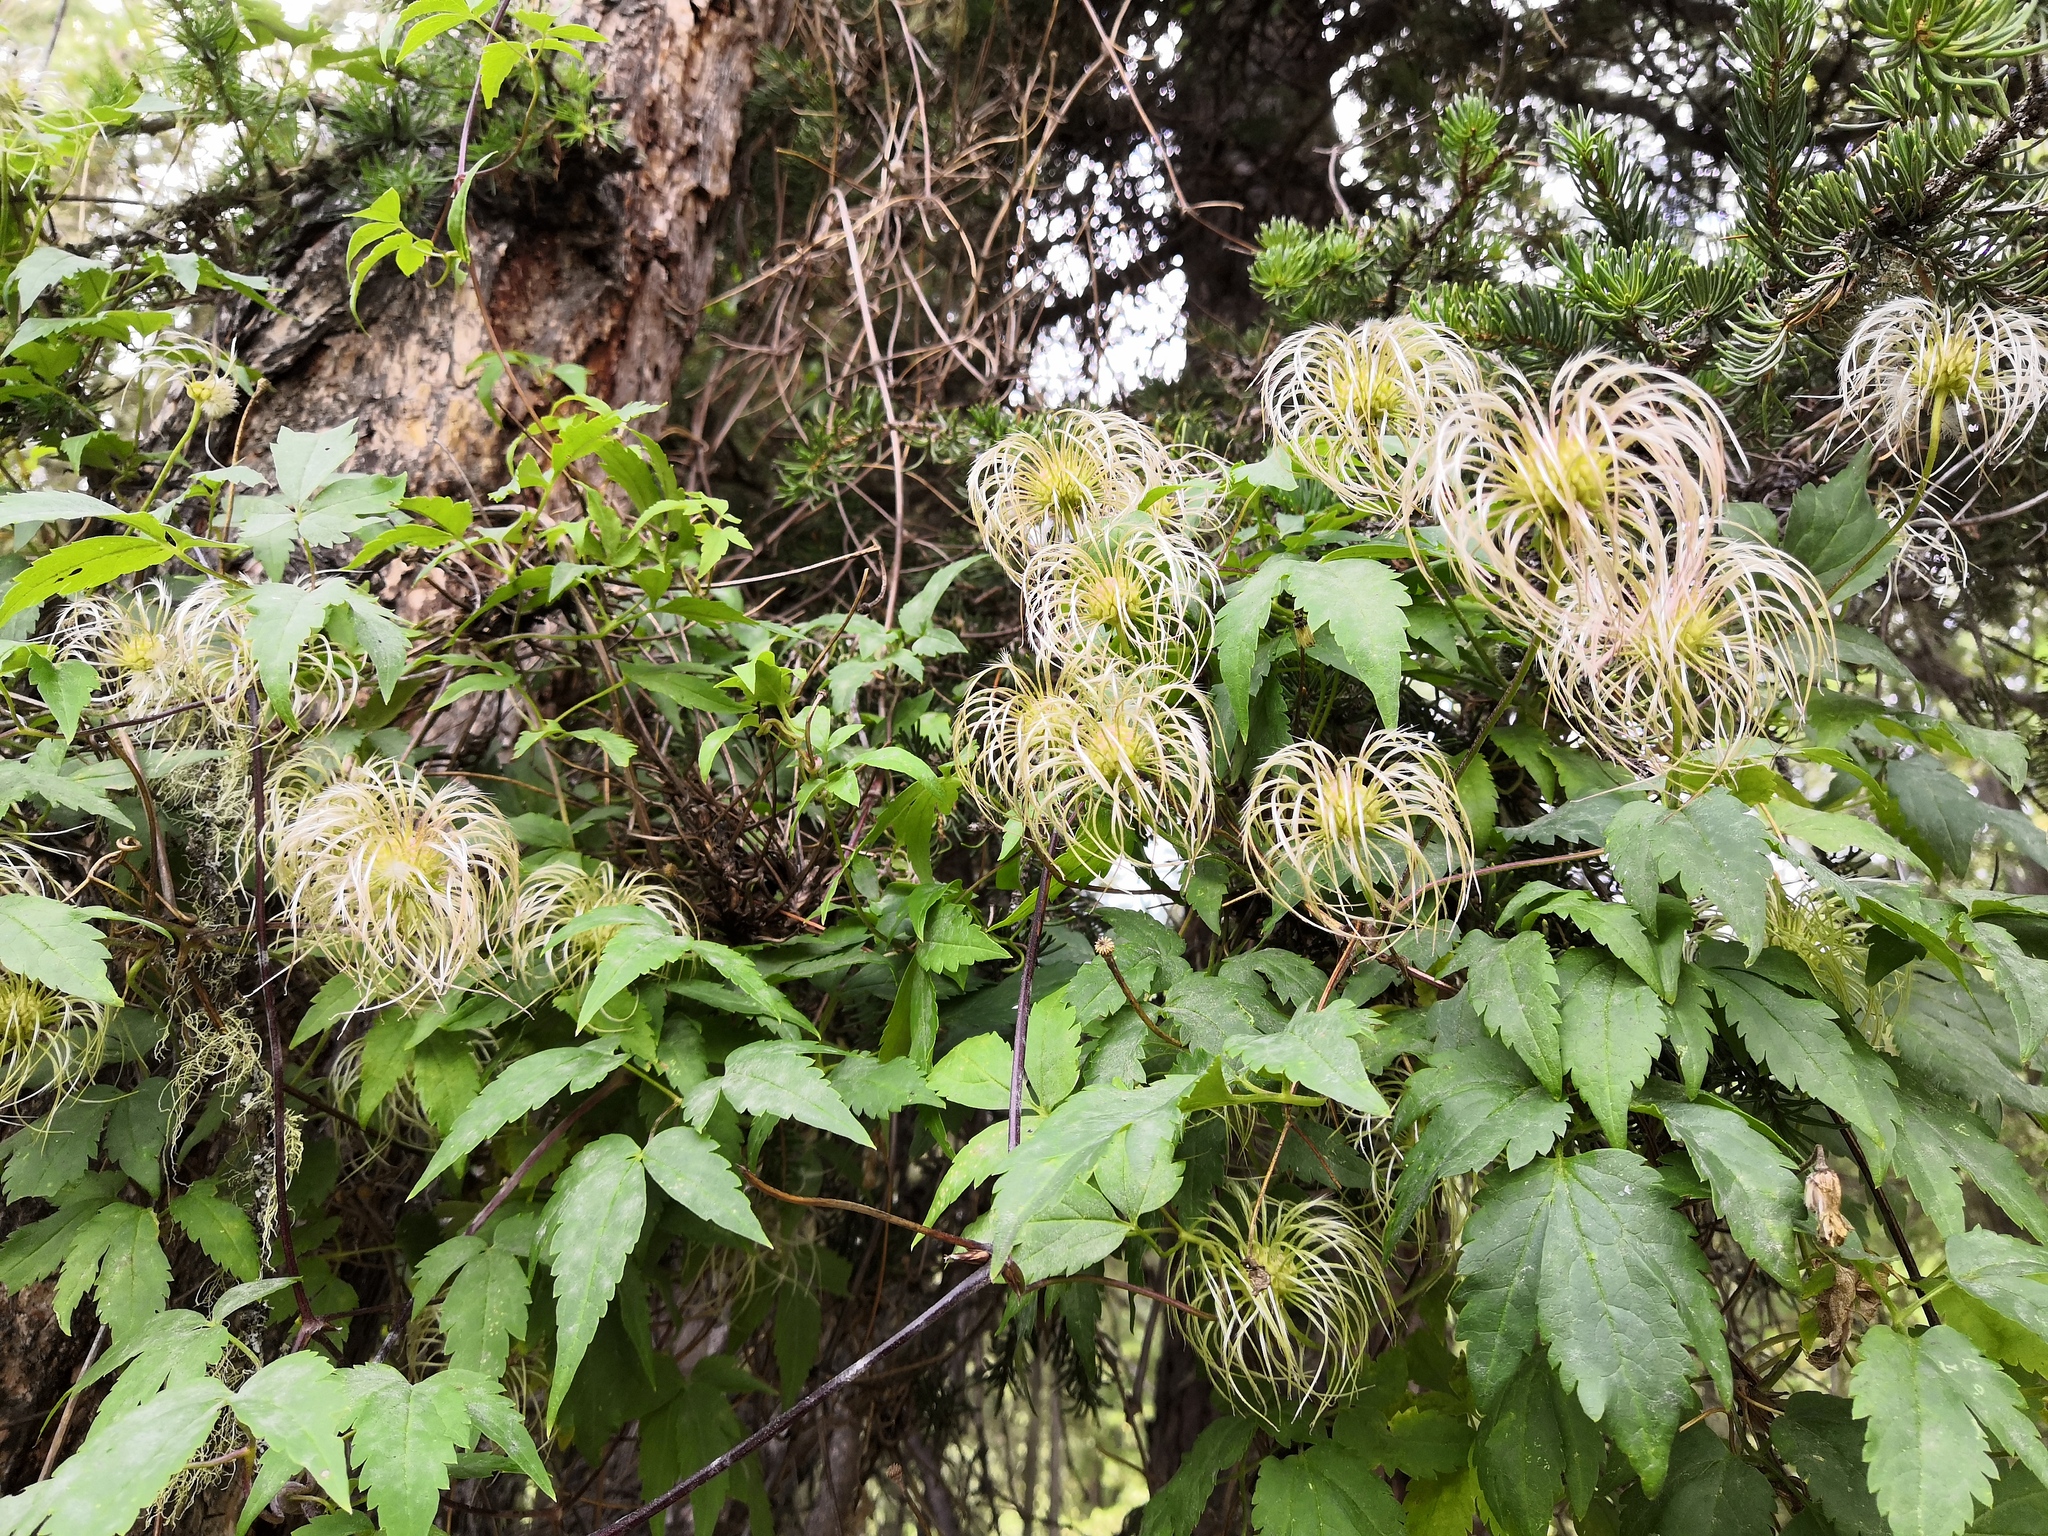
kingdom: Plantae
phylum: Tracheophyta
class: Magnoliopsida
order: Ranunculales
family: Ranunculaceae
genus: Clematis
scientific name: Clematis sibirica
